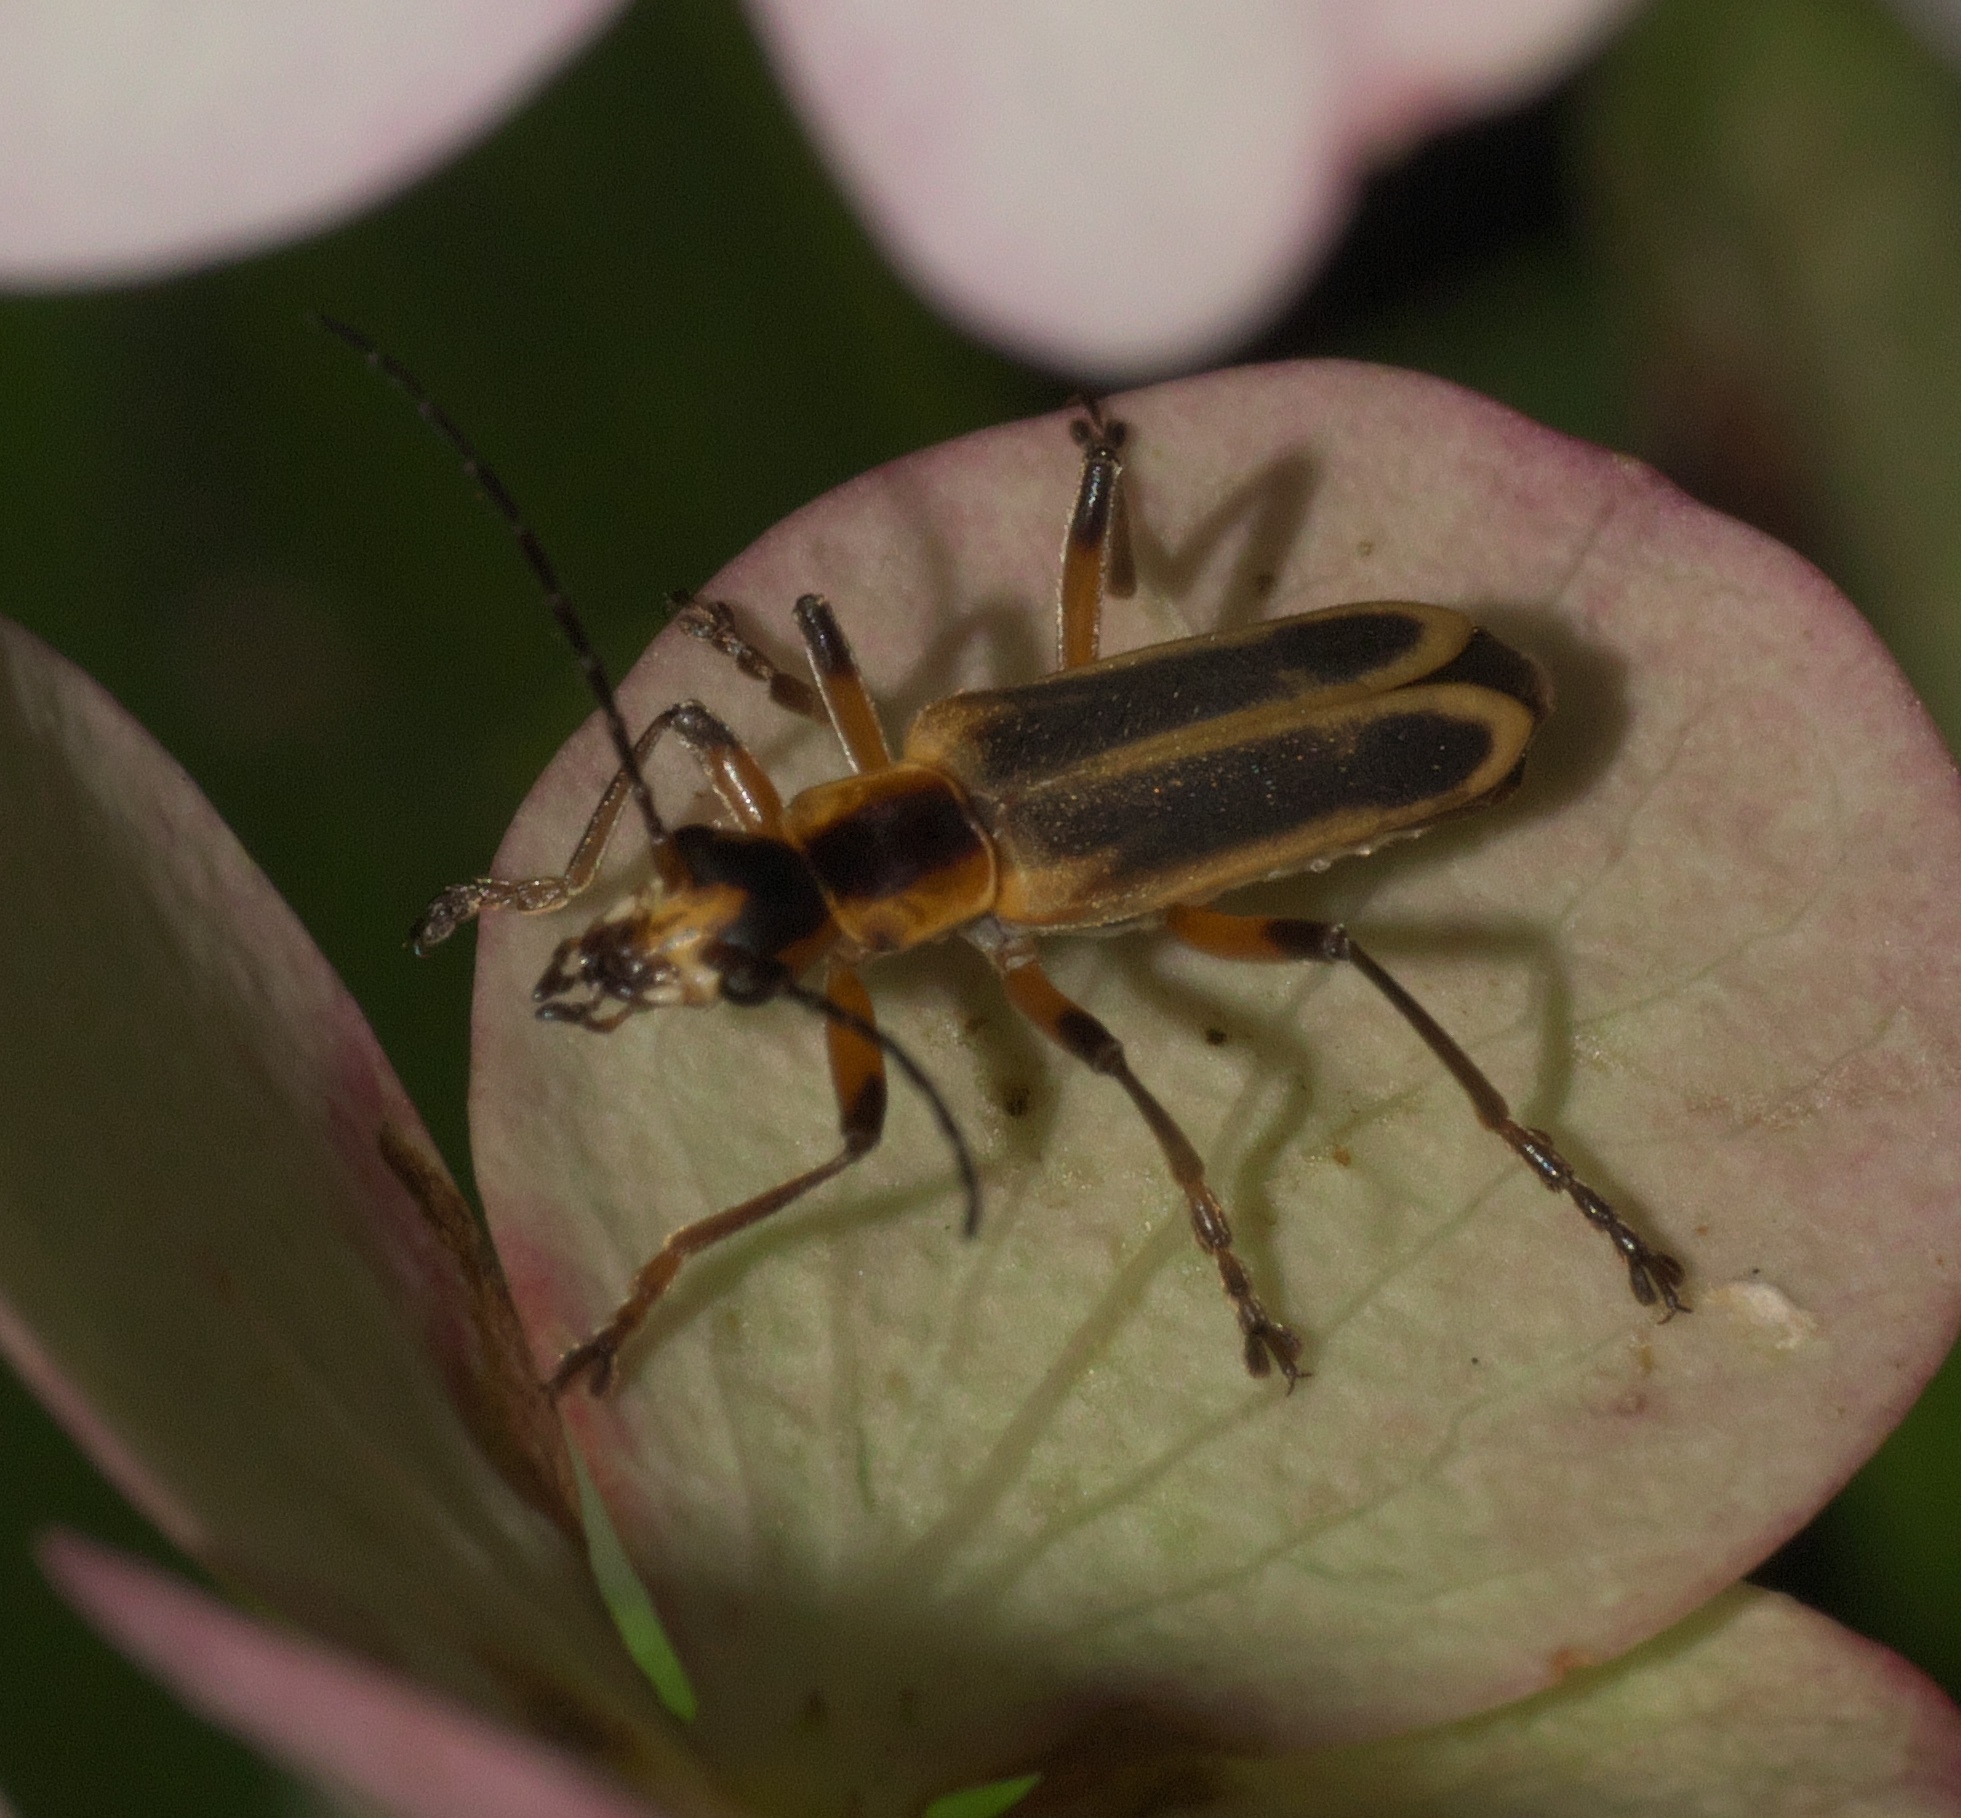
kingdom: Animalia
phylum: Arthropoda
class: Insecta
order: Coleoptera
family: Cantharidae
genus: Chauliognathus
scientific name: Chauliognathus marginatus
